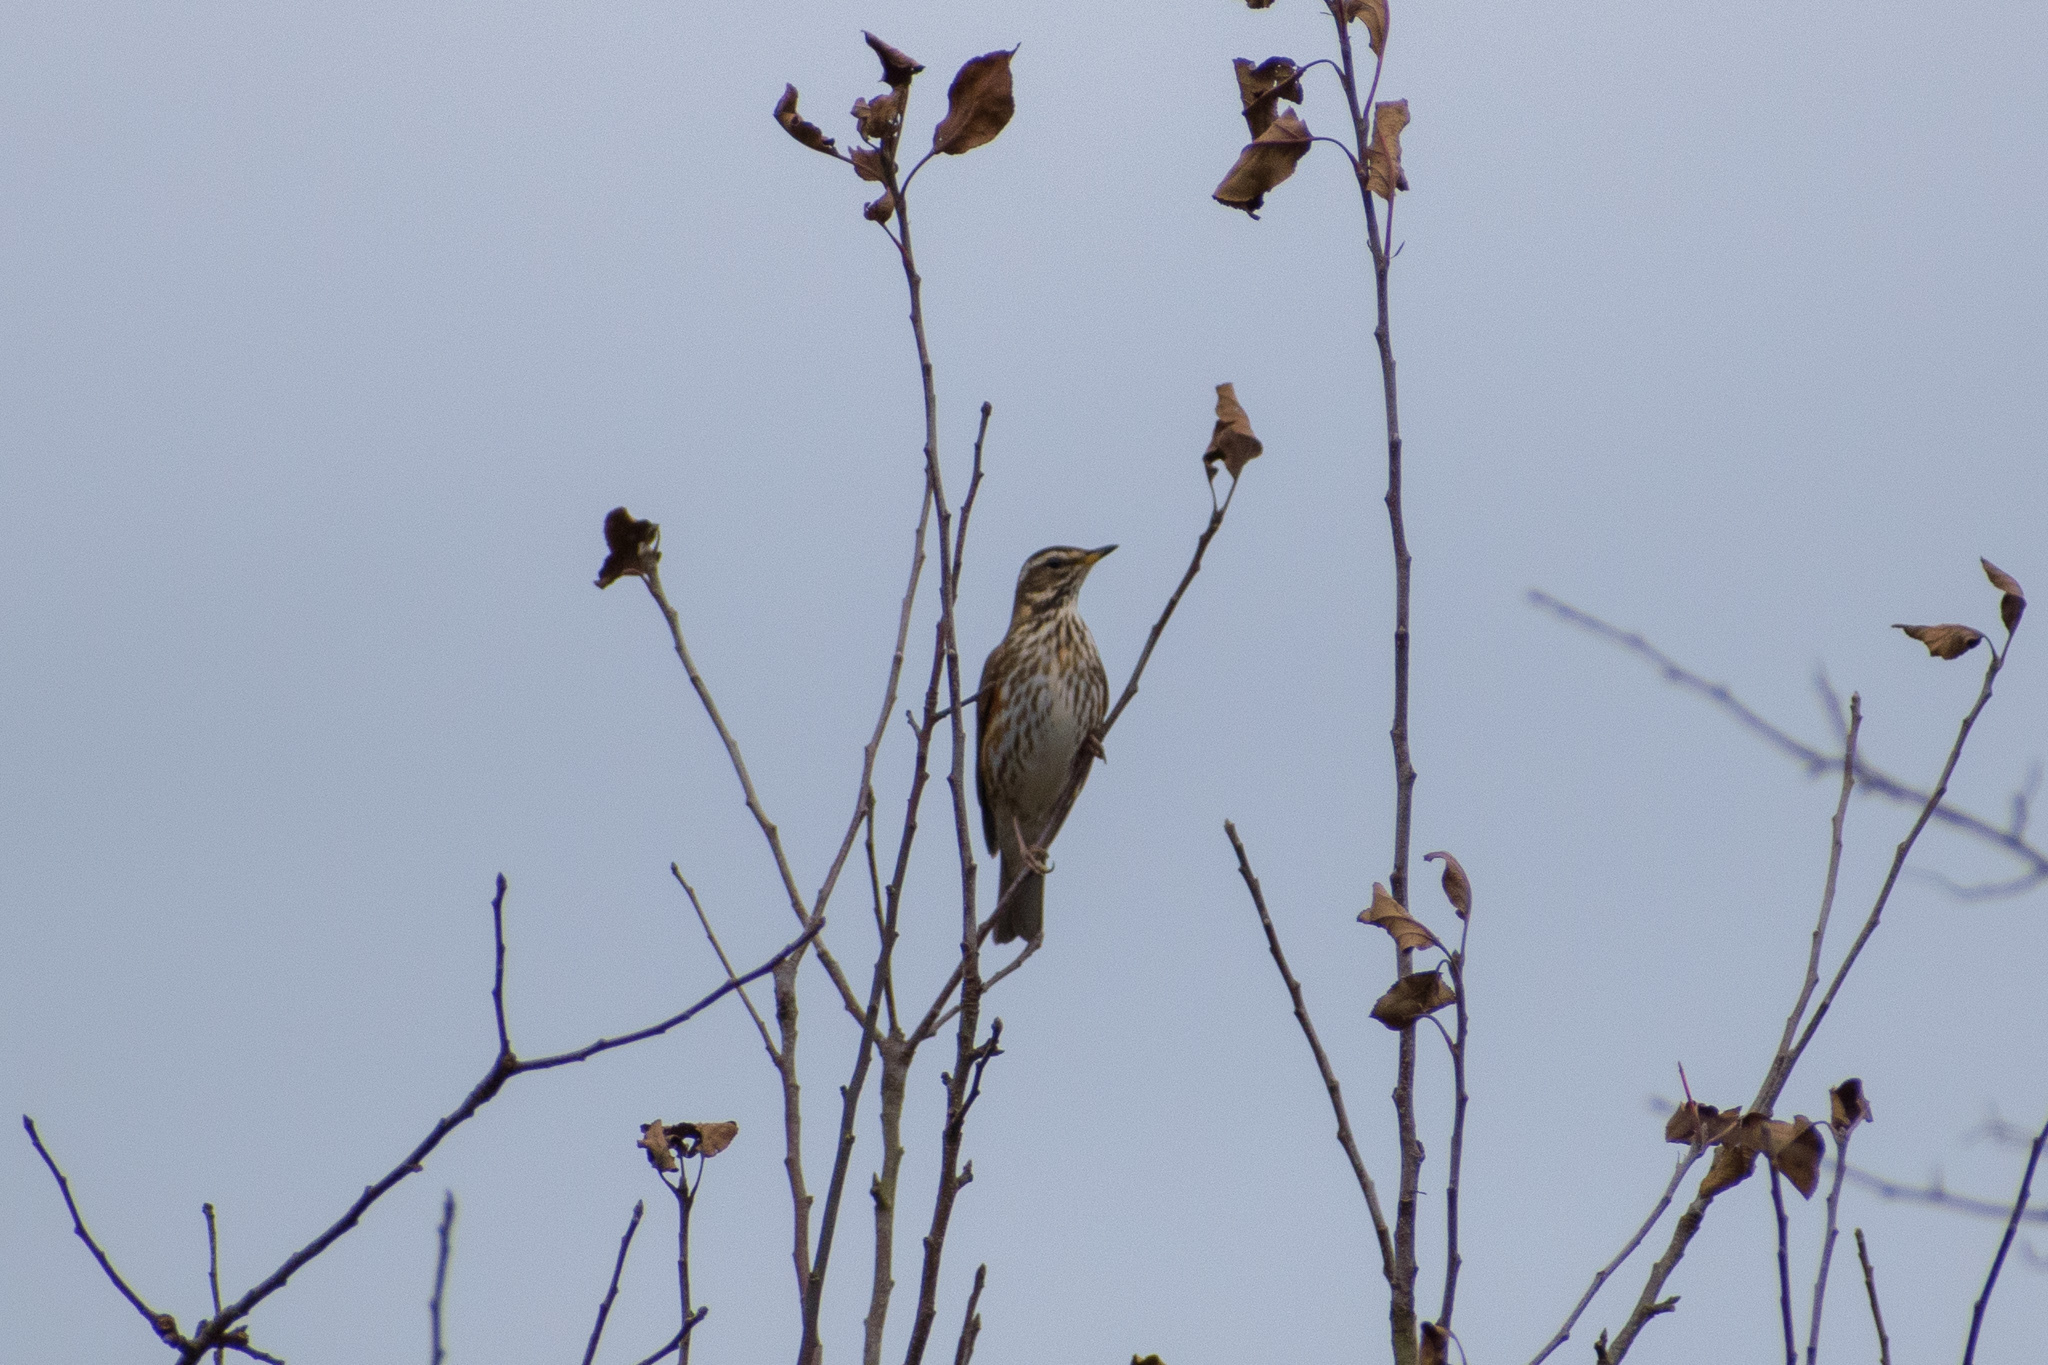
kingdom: Animalia
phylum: Chordata
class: Aves
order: Passeriformes
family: Turdidae
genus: Turdus
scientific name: Turdus iliacus
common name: Redwing
